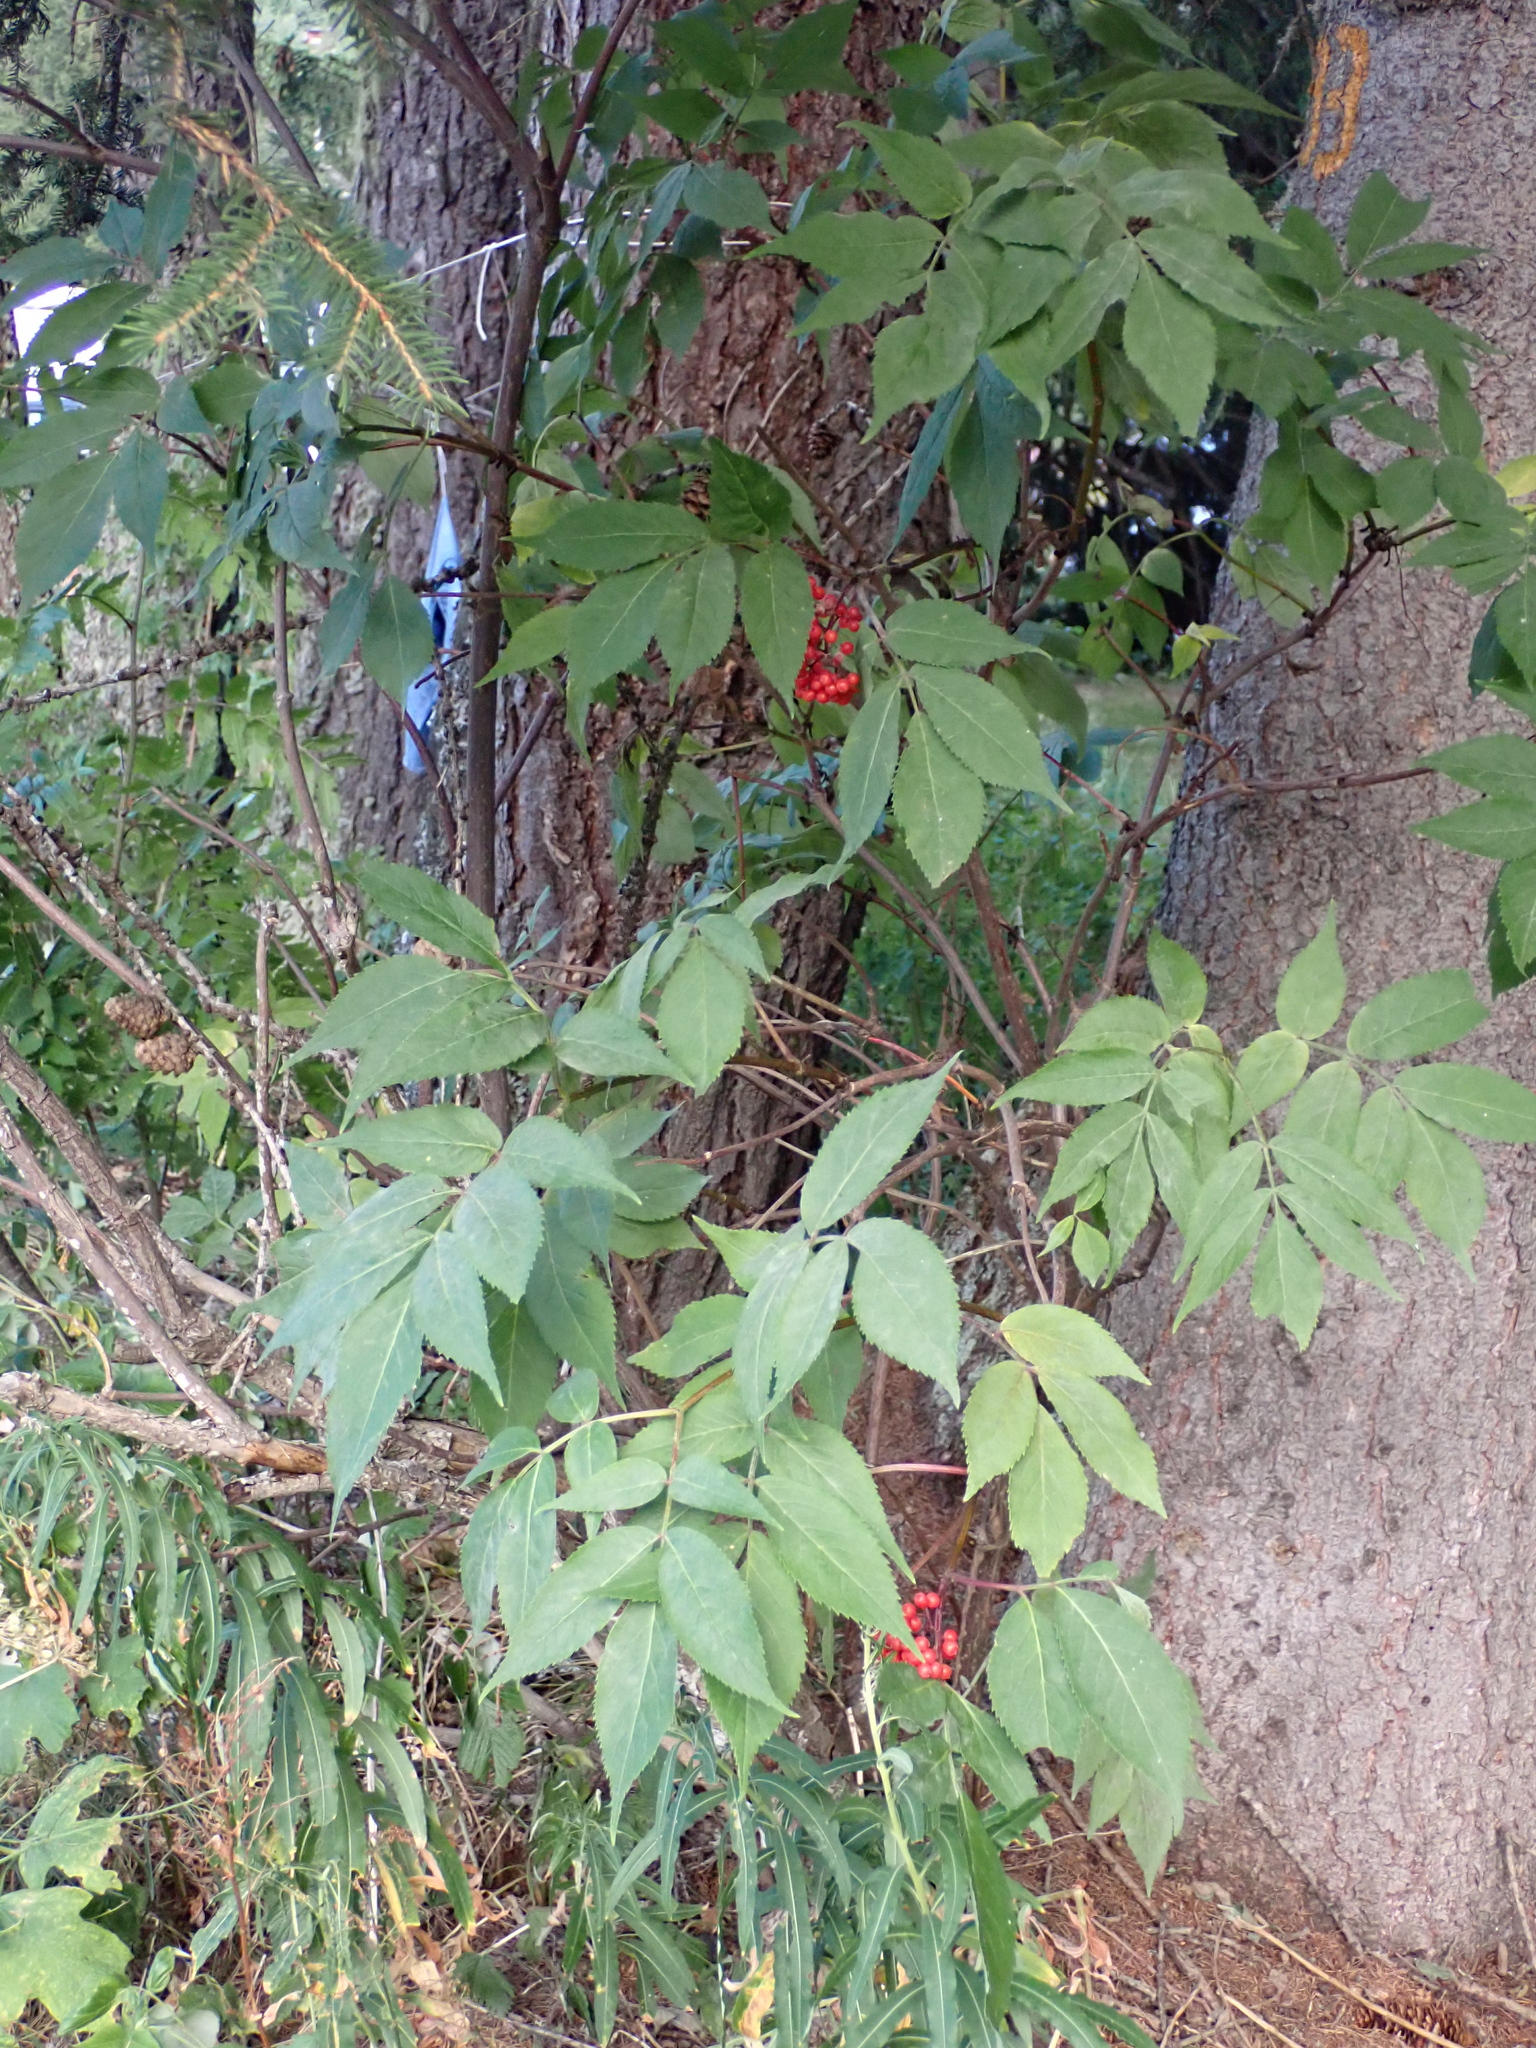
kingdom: Plantae
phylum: Tracheophyta
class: Magnoliopsida
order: Dipsacales
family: Viburnaceae
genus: Sambucus
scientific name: Sambucus racemosa
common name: Red-berried elder
